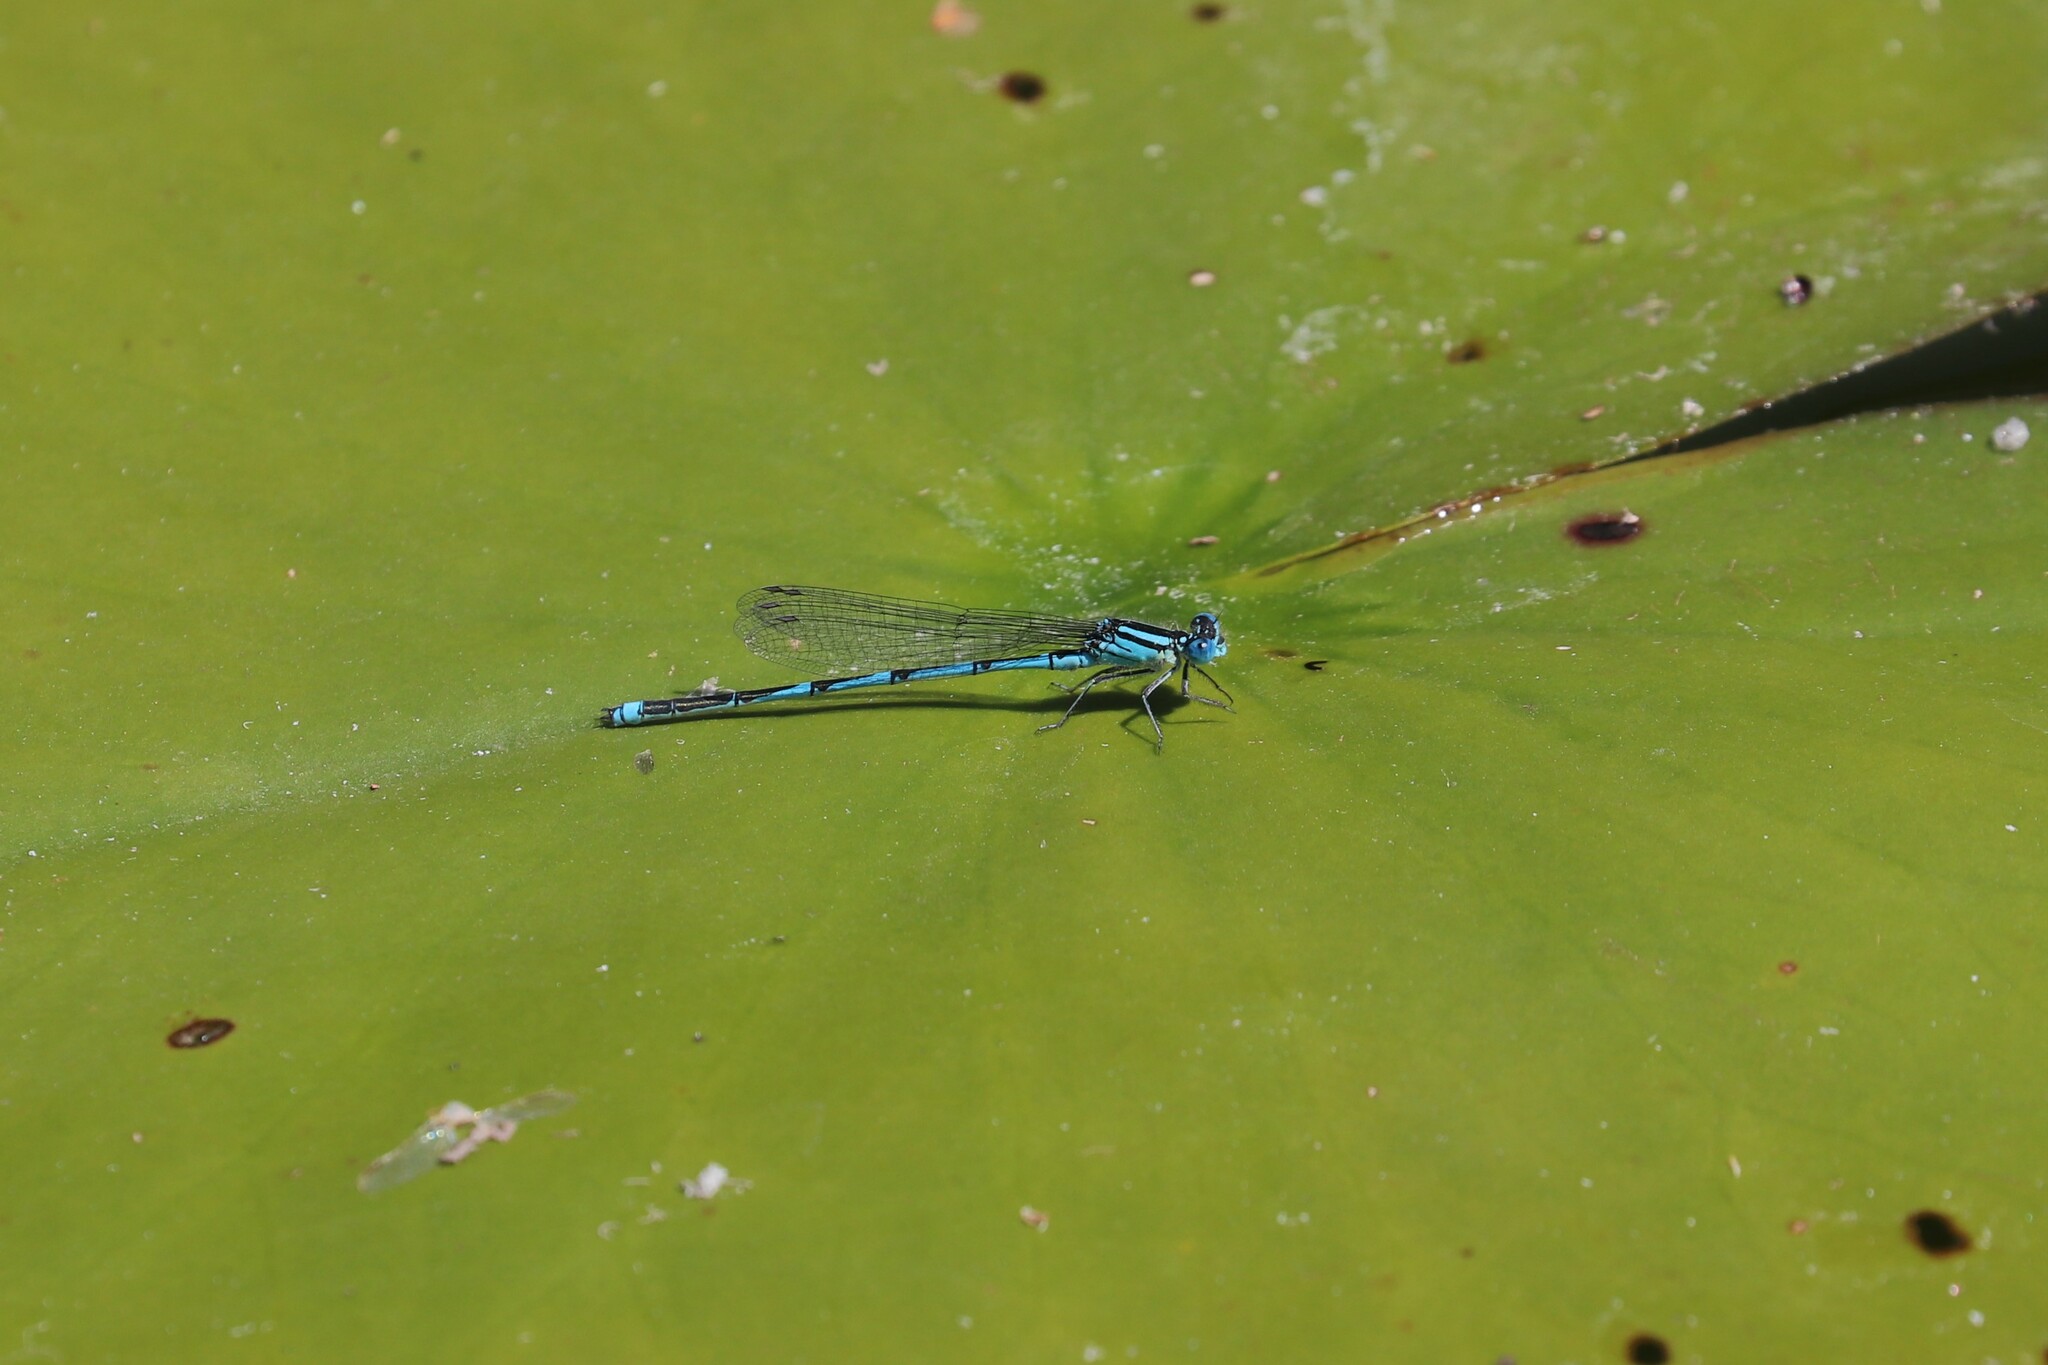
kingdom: Animalia
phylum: Arthropoda
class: Insecta
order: Odonata
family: Coenagrionidae
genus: Erythromma
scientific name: Erythromma lindenii
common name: Blue-eye
